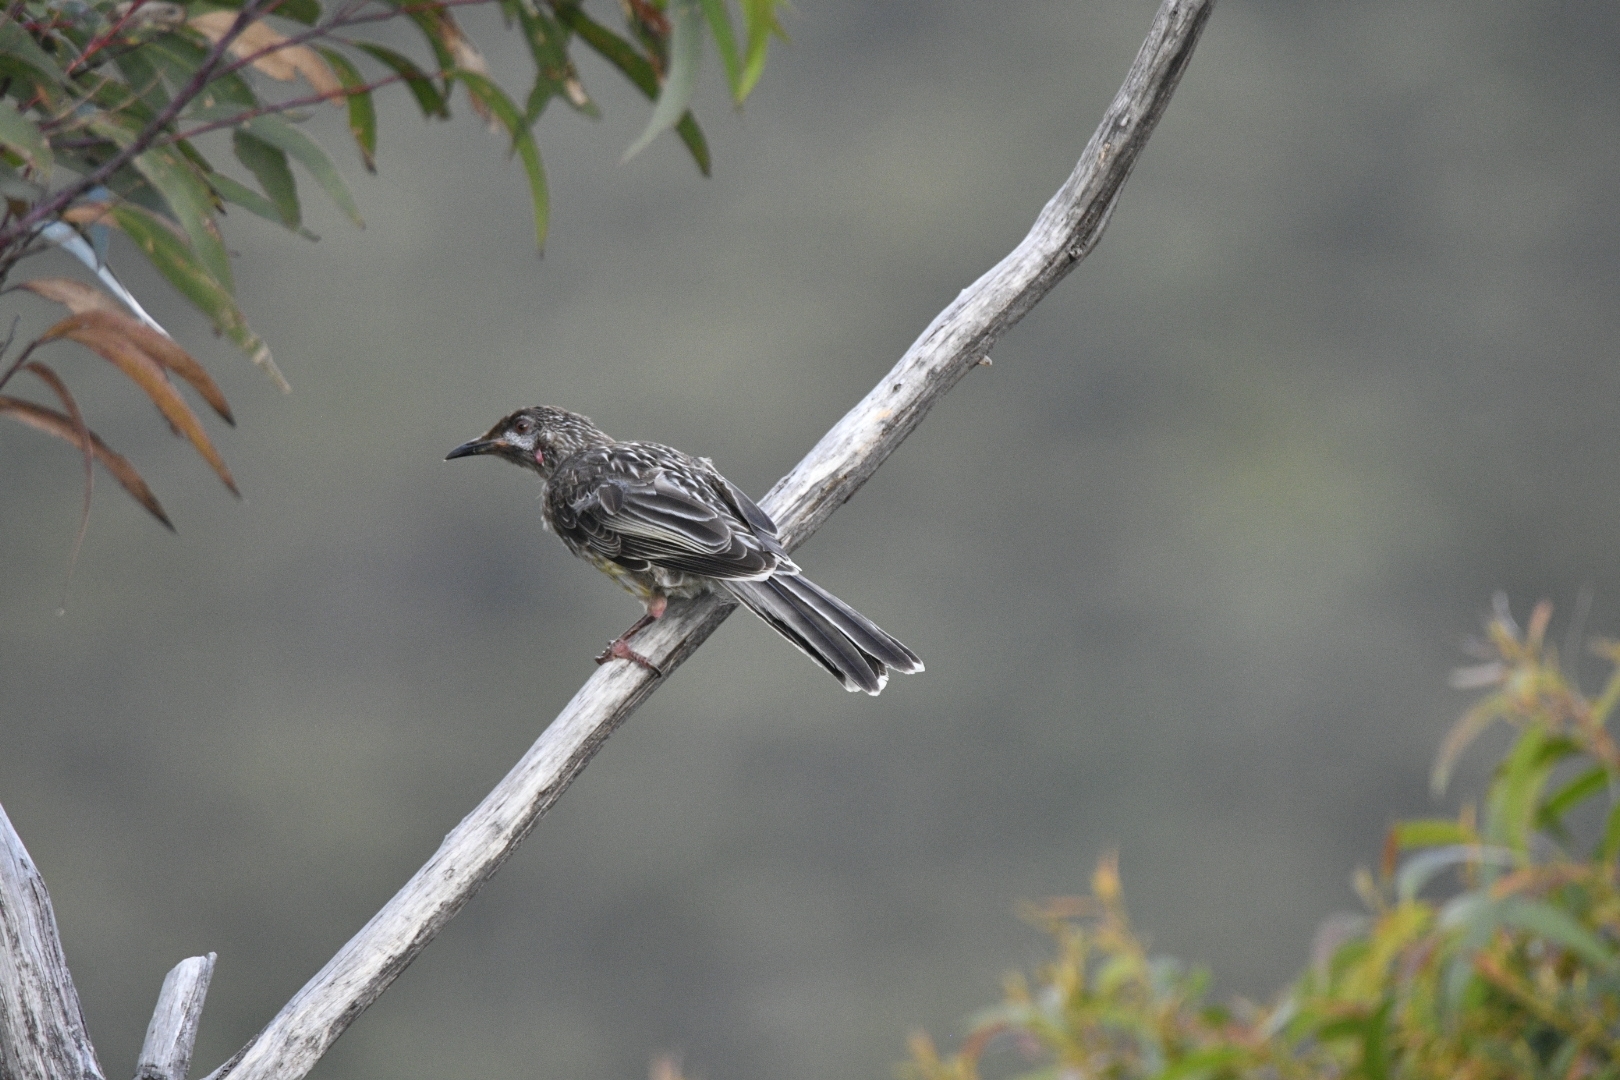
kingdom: Animalia
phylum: Chordata
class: Aves
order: Passeriformes
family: Meliphagidae
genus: Anthochaera
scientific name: Anthochaera carunculata
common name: Red wattlebird
